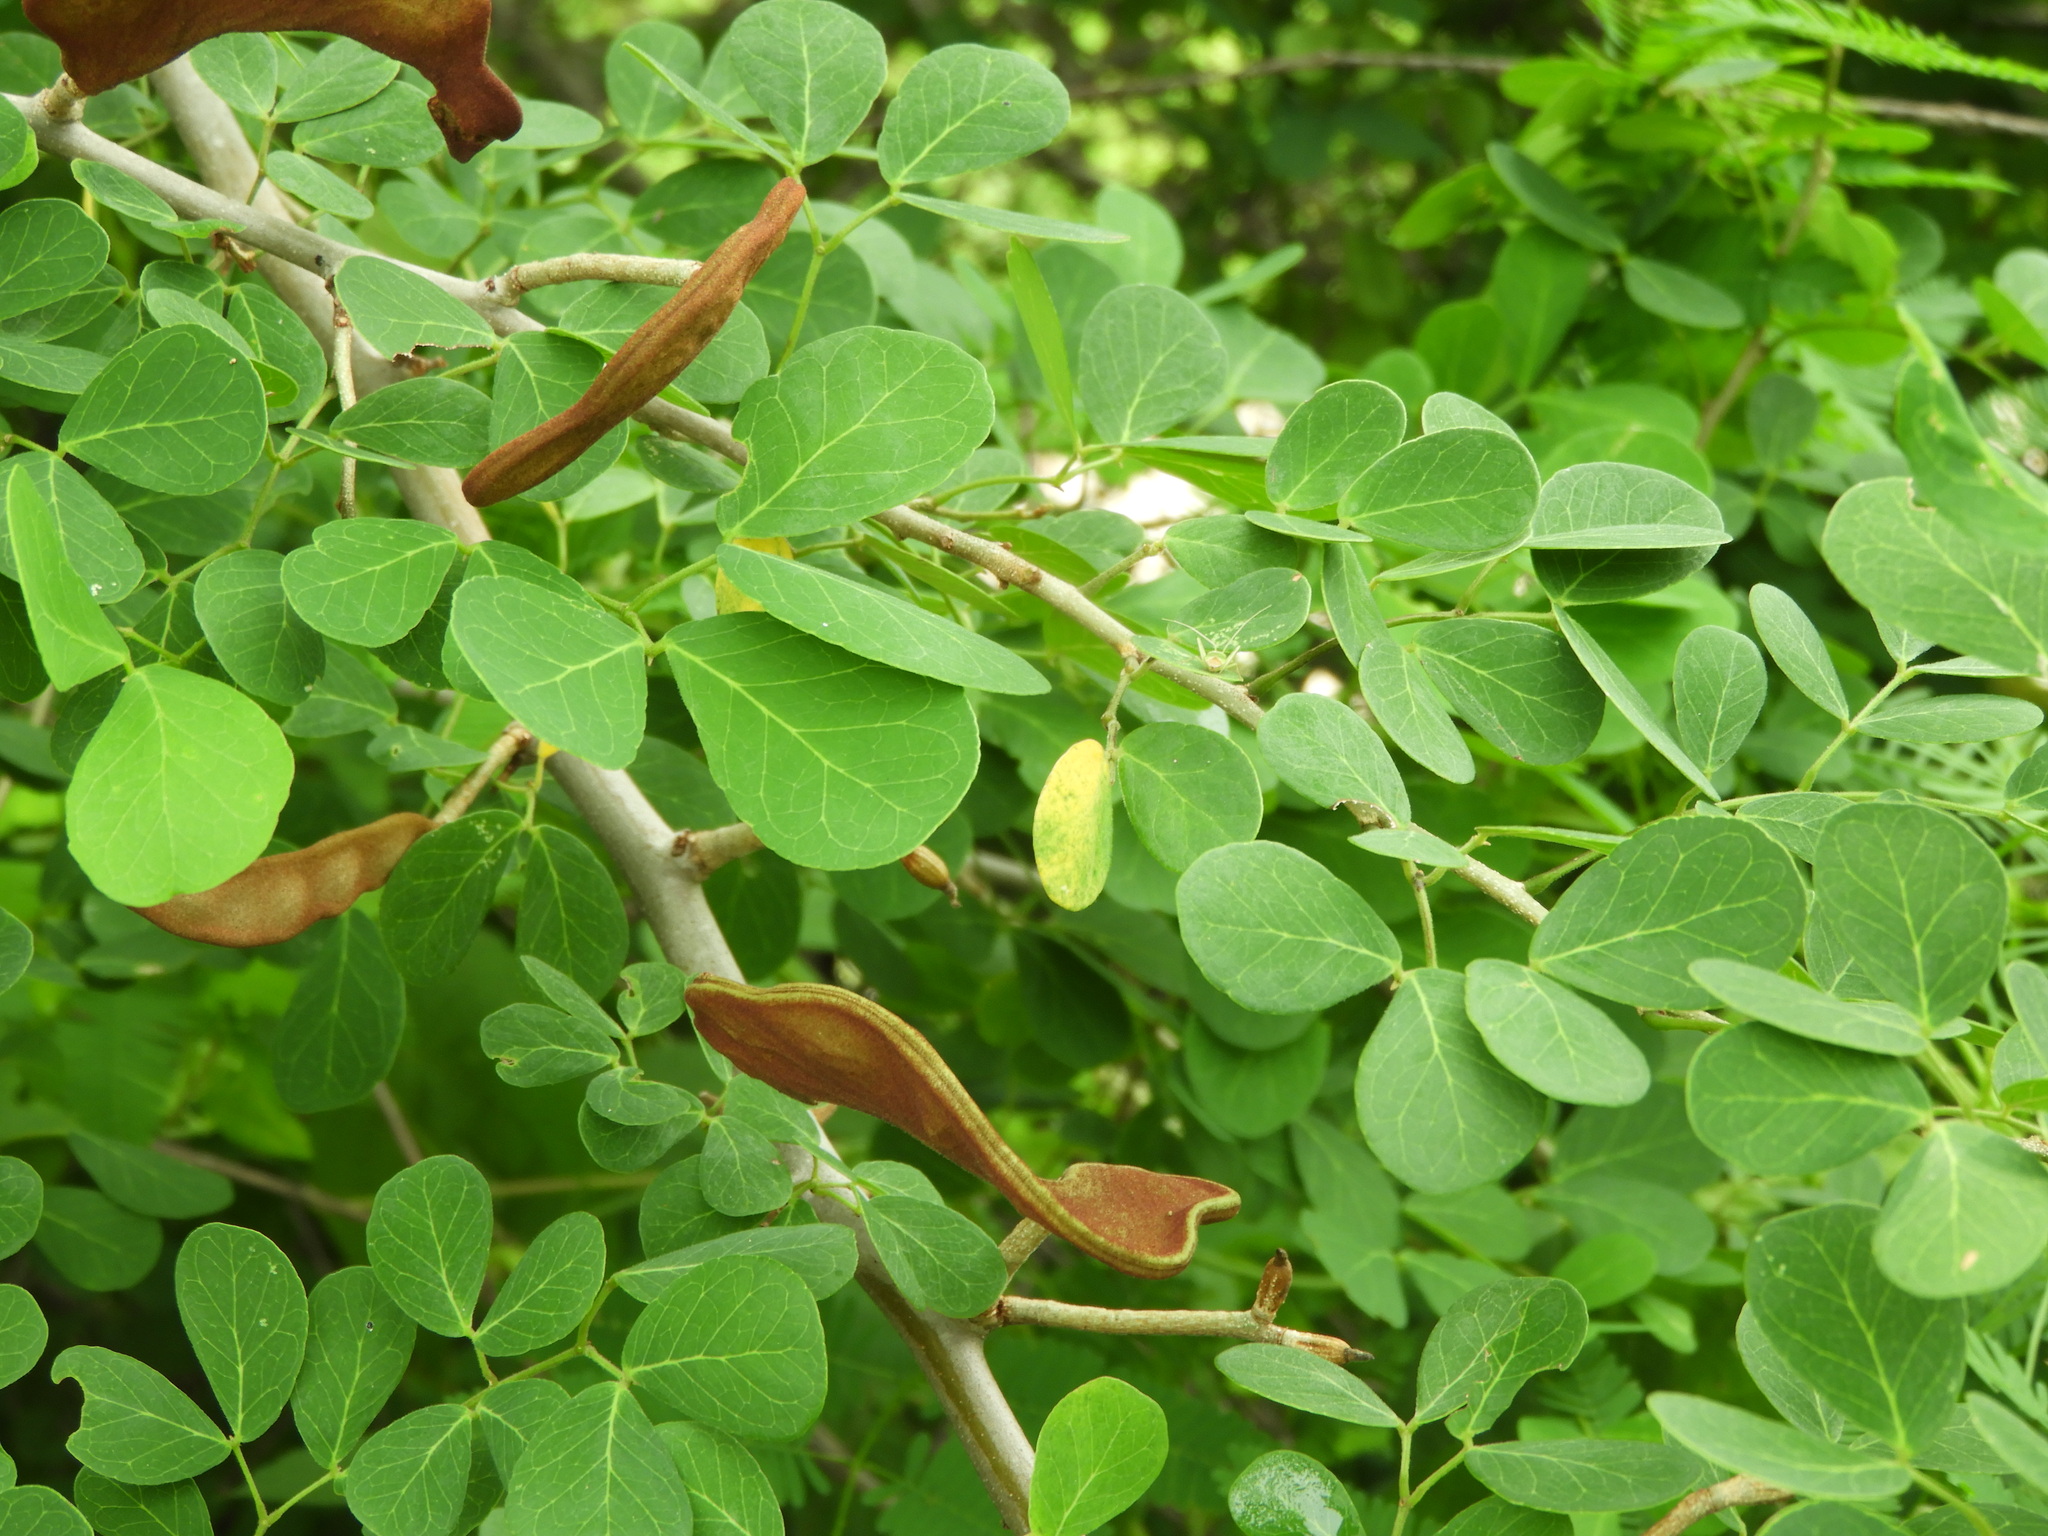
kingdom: Plantae
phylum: Tracheophyta
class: Magnoliopsida
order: Fabales
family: Fabaceae
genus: Microlobius
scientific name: Microlobius foetidus
